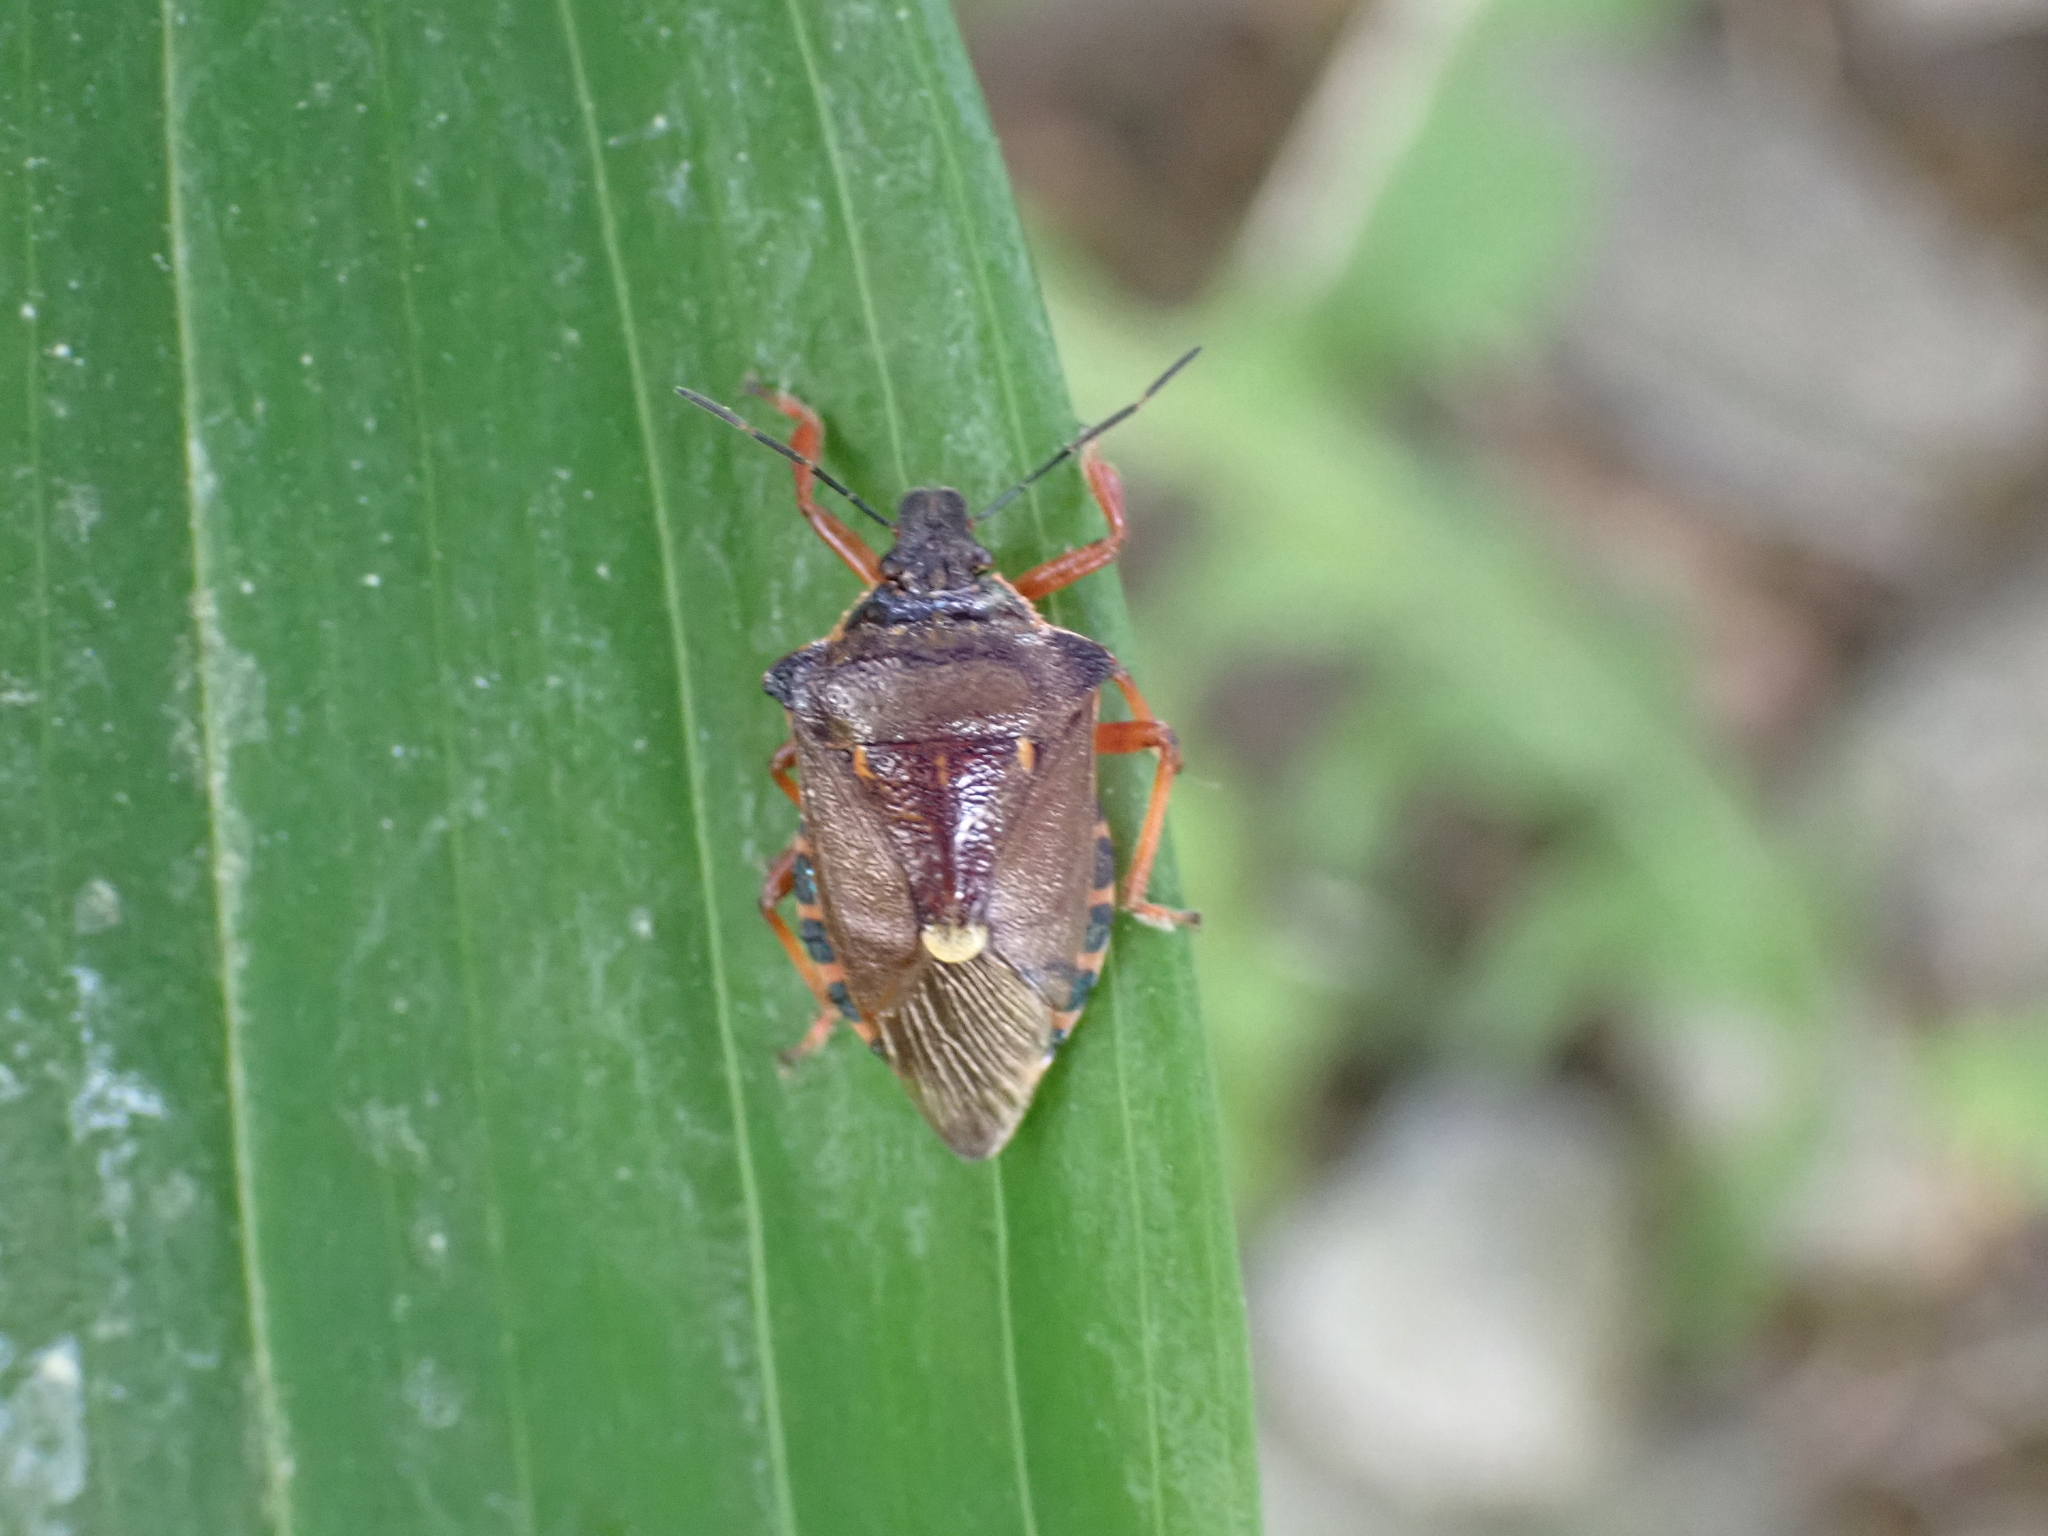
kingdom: Animalia
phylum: Arthropoda
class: Insecta
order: Hemiptera
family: Pentatomidae
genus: Pinthaeus
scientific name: Pinthaeus sanguinipes
